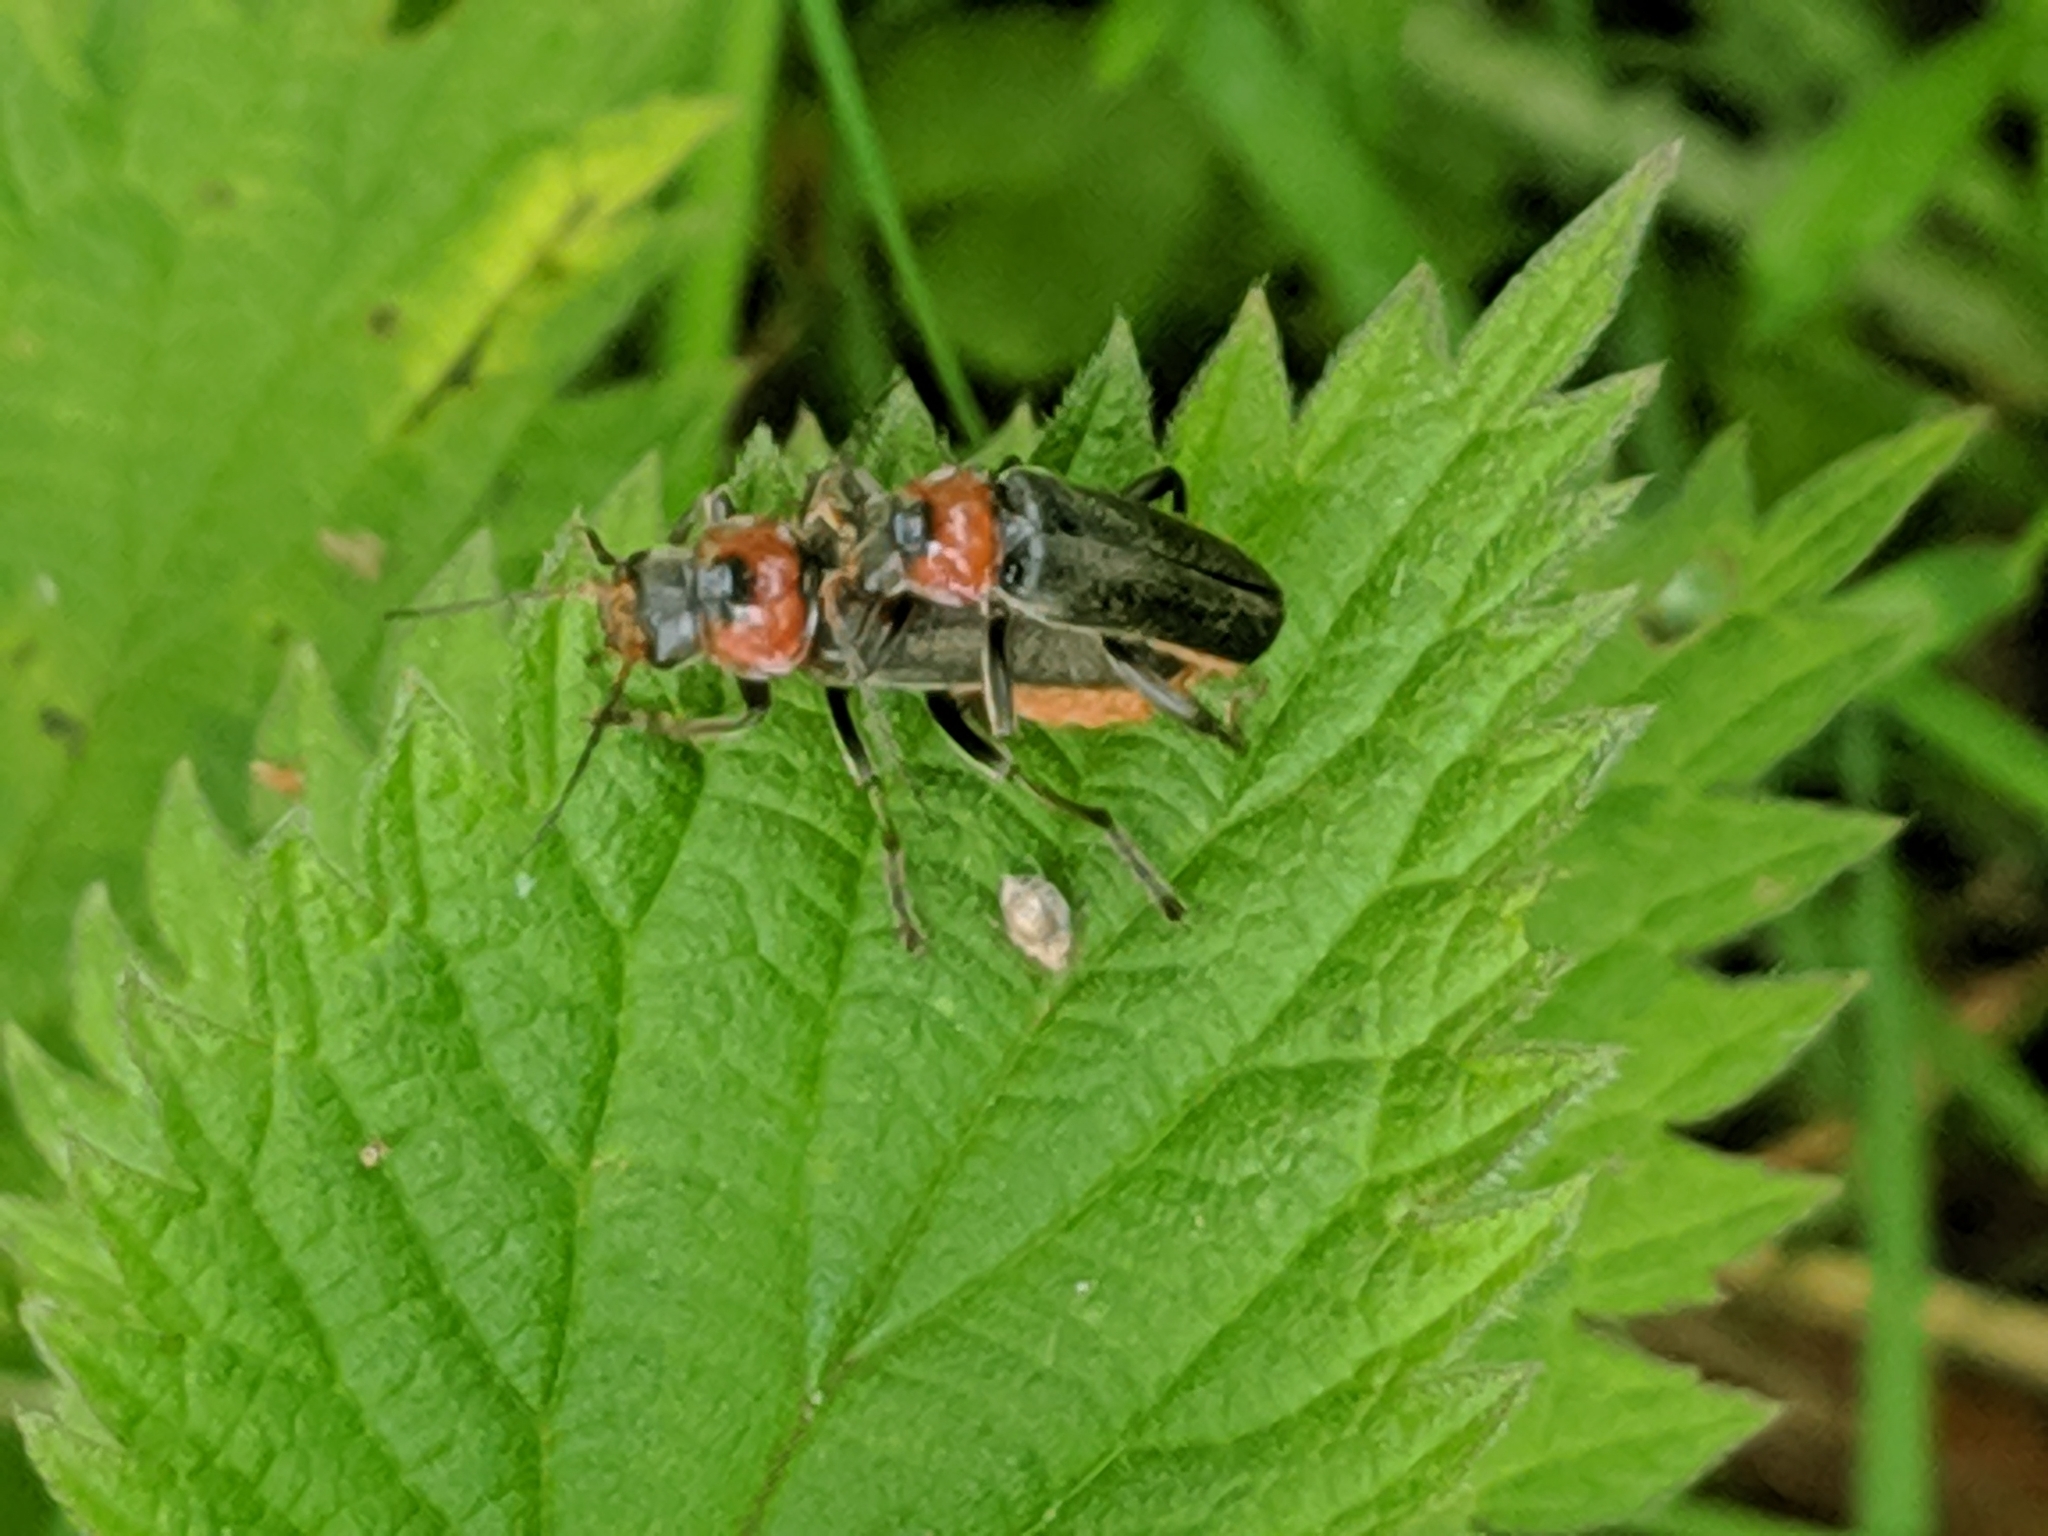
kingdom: Animalia
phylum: Arthropoda
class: Insecta
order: Coleoptera
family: Cantharidae
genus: Cantharis
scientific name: Cantharis fusca
